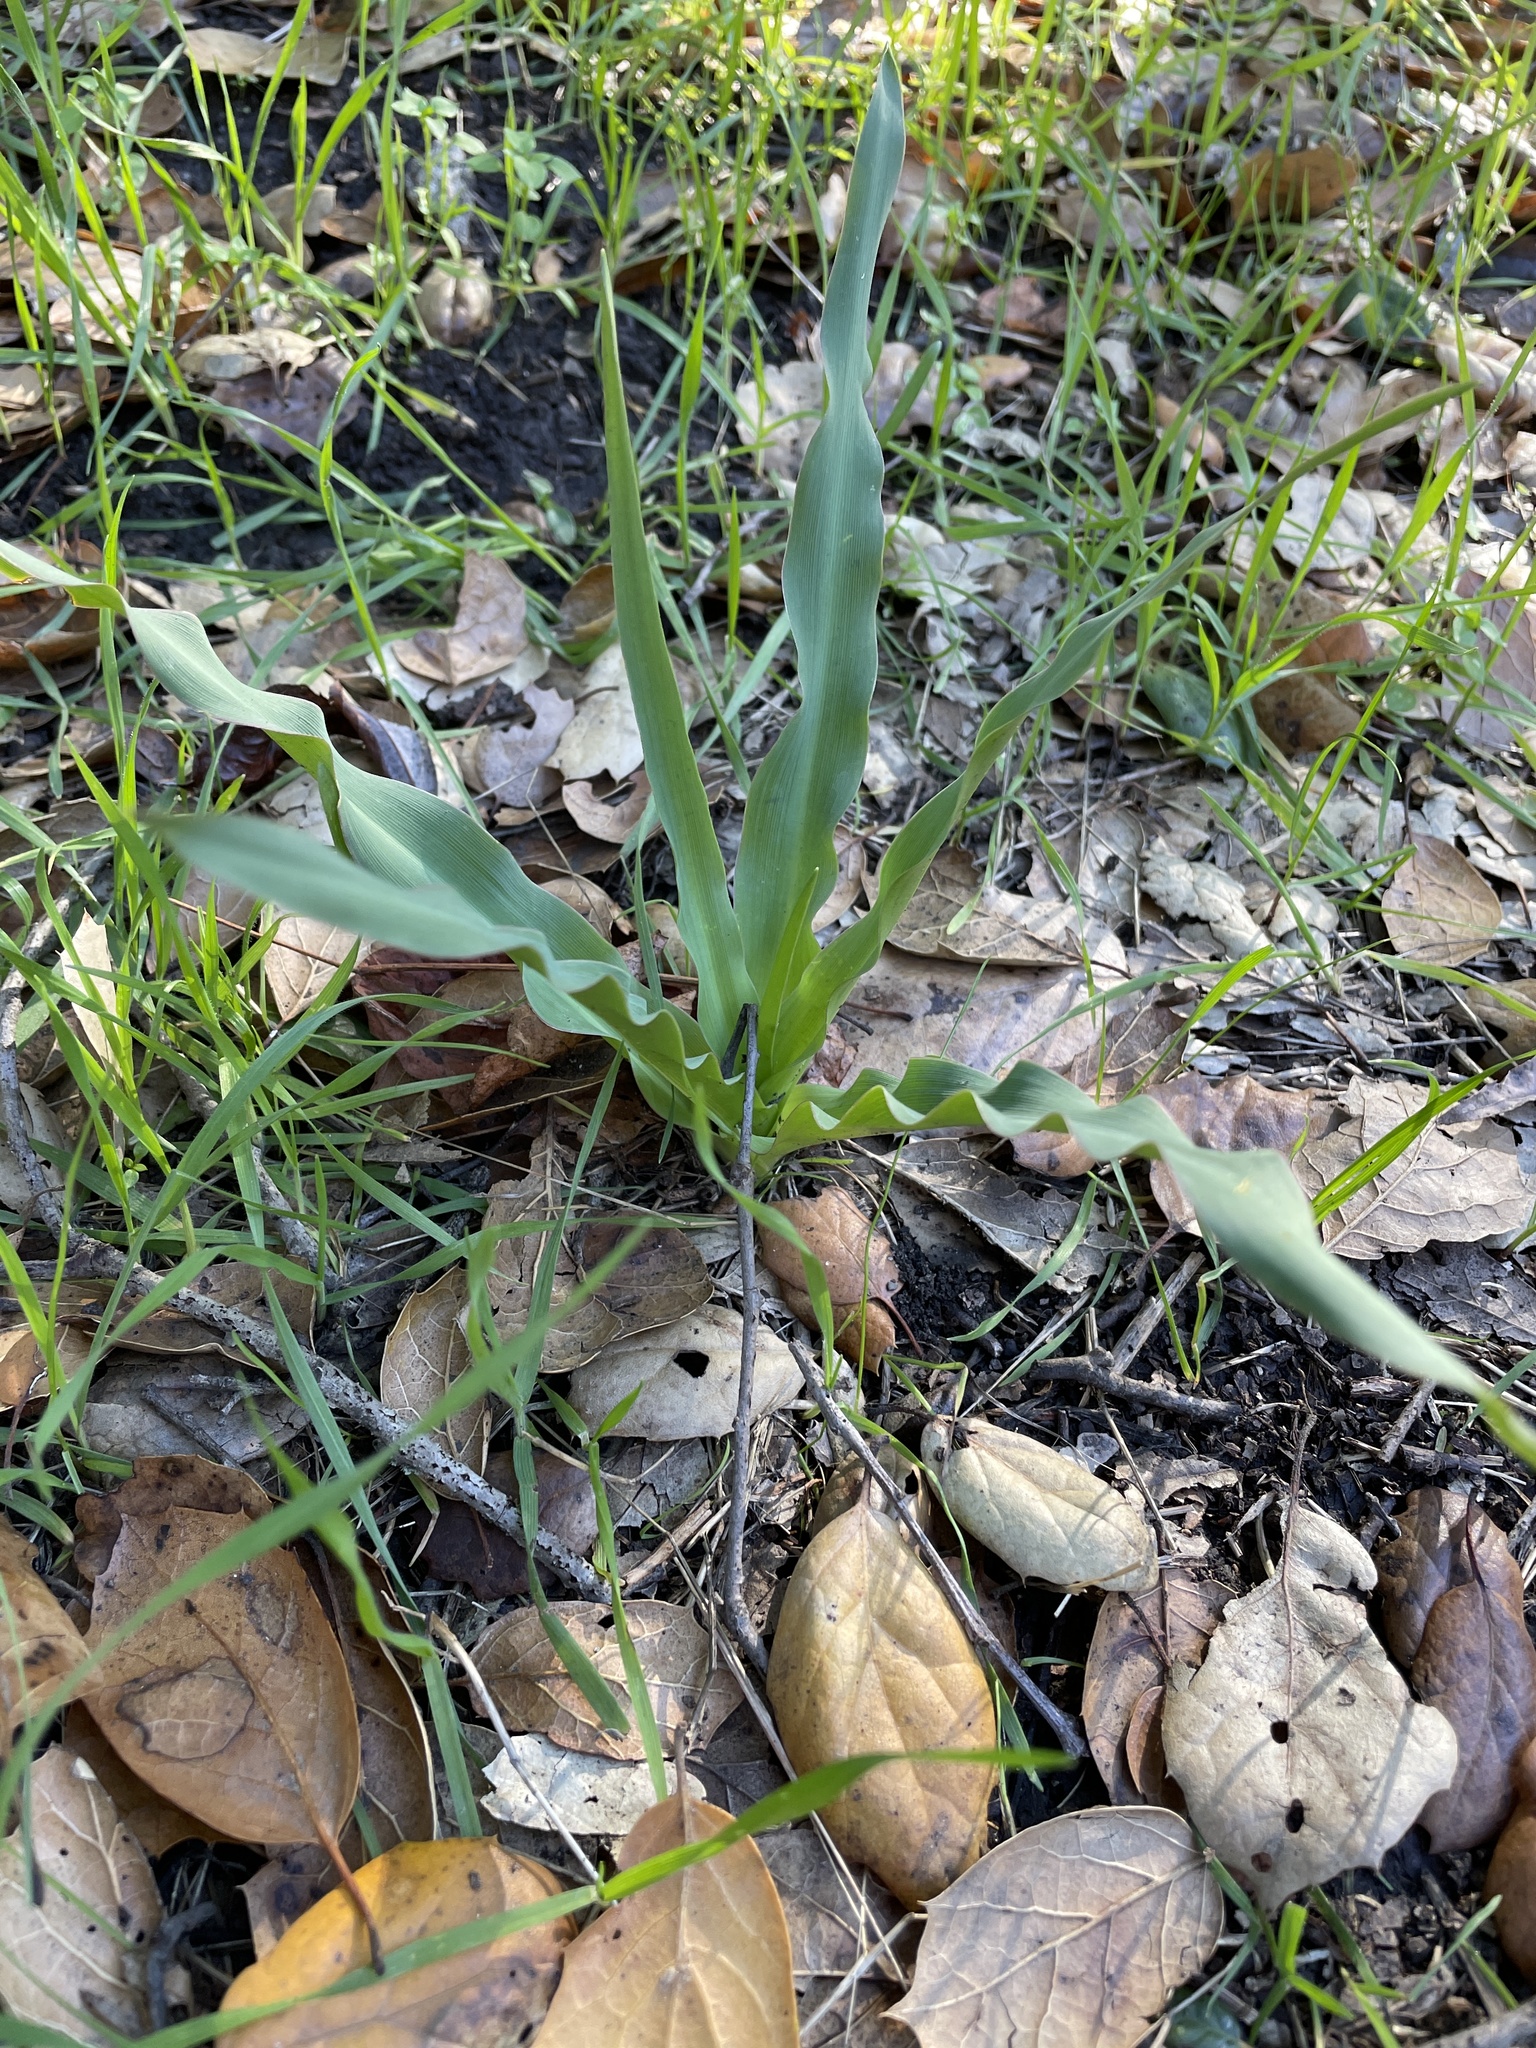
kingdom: Plantae
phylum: Tracheophyta
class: Liliopsida
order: Asparagales
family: Asparagaceae
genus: Chlorogalum
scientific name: Chlorogalum pomeridianum
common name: Amole
